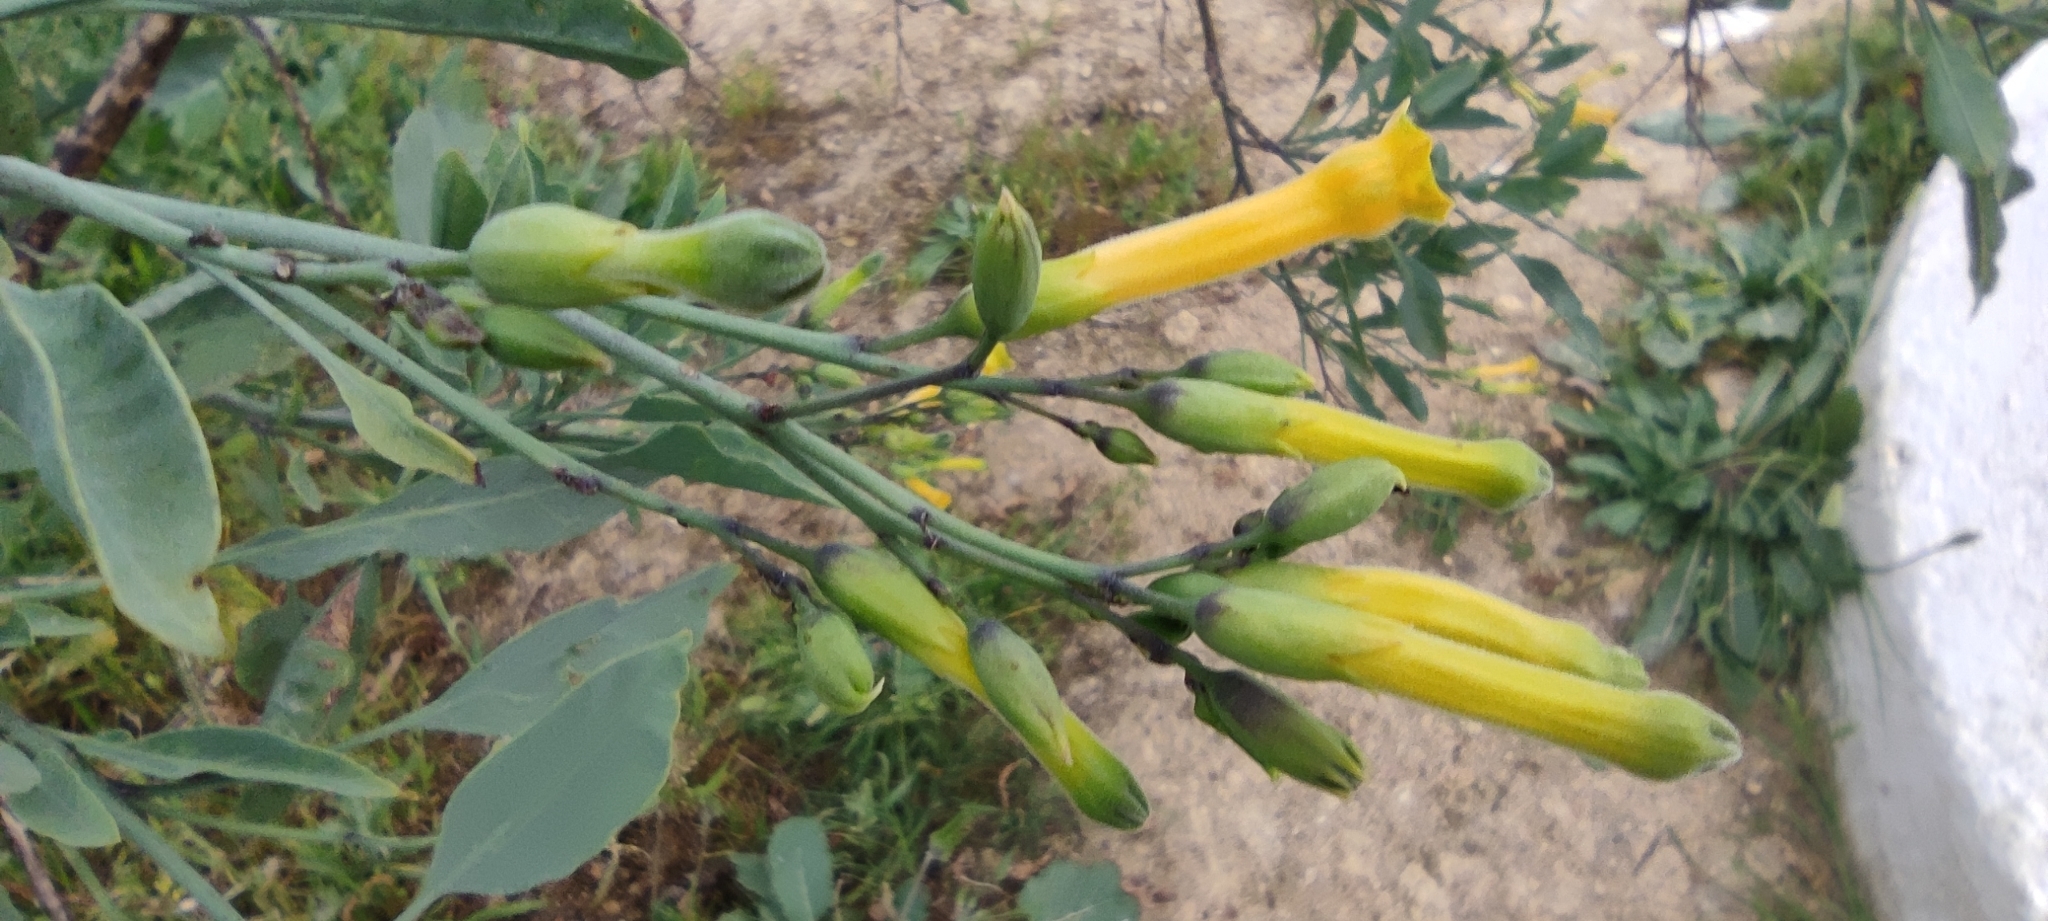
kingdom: Plantae
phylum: Tracheophyta
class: Magnoliopsida
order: Solanales
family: Solanaceae
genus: Nicotiana
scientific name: Nicotiana glauca
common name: Tree tobacco
